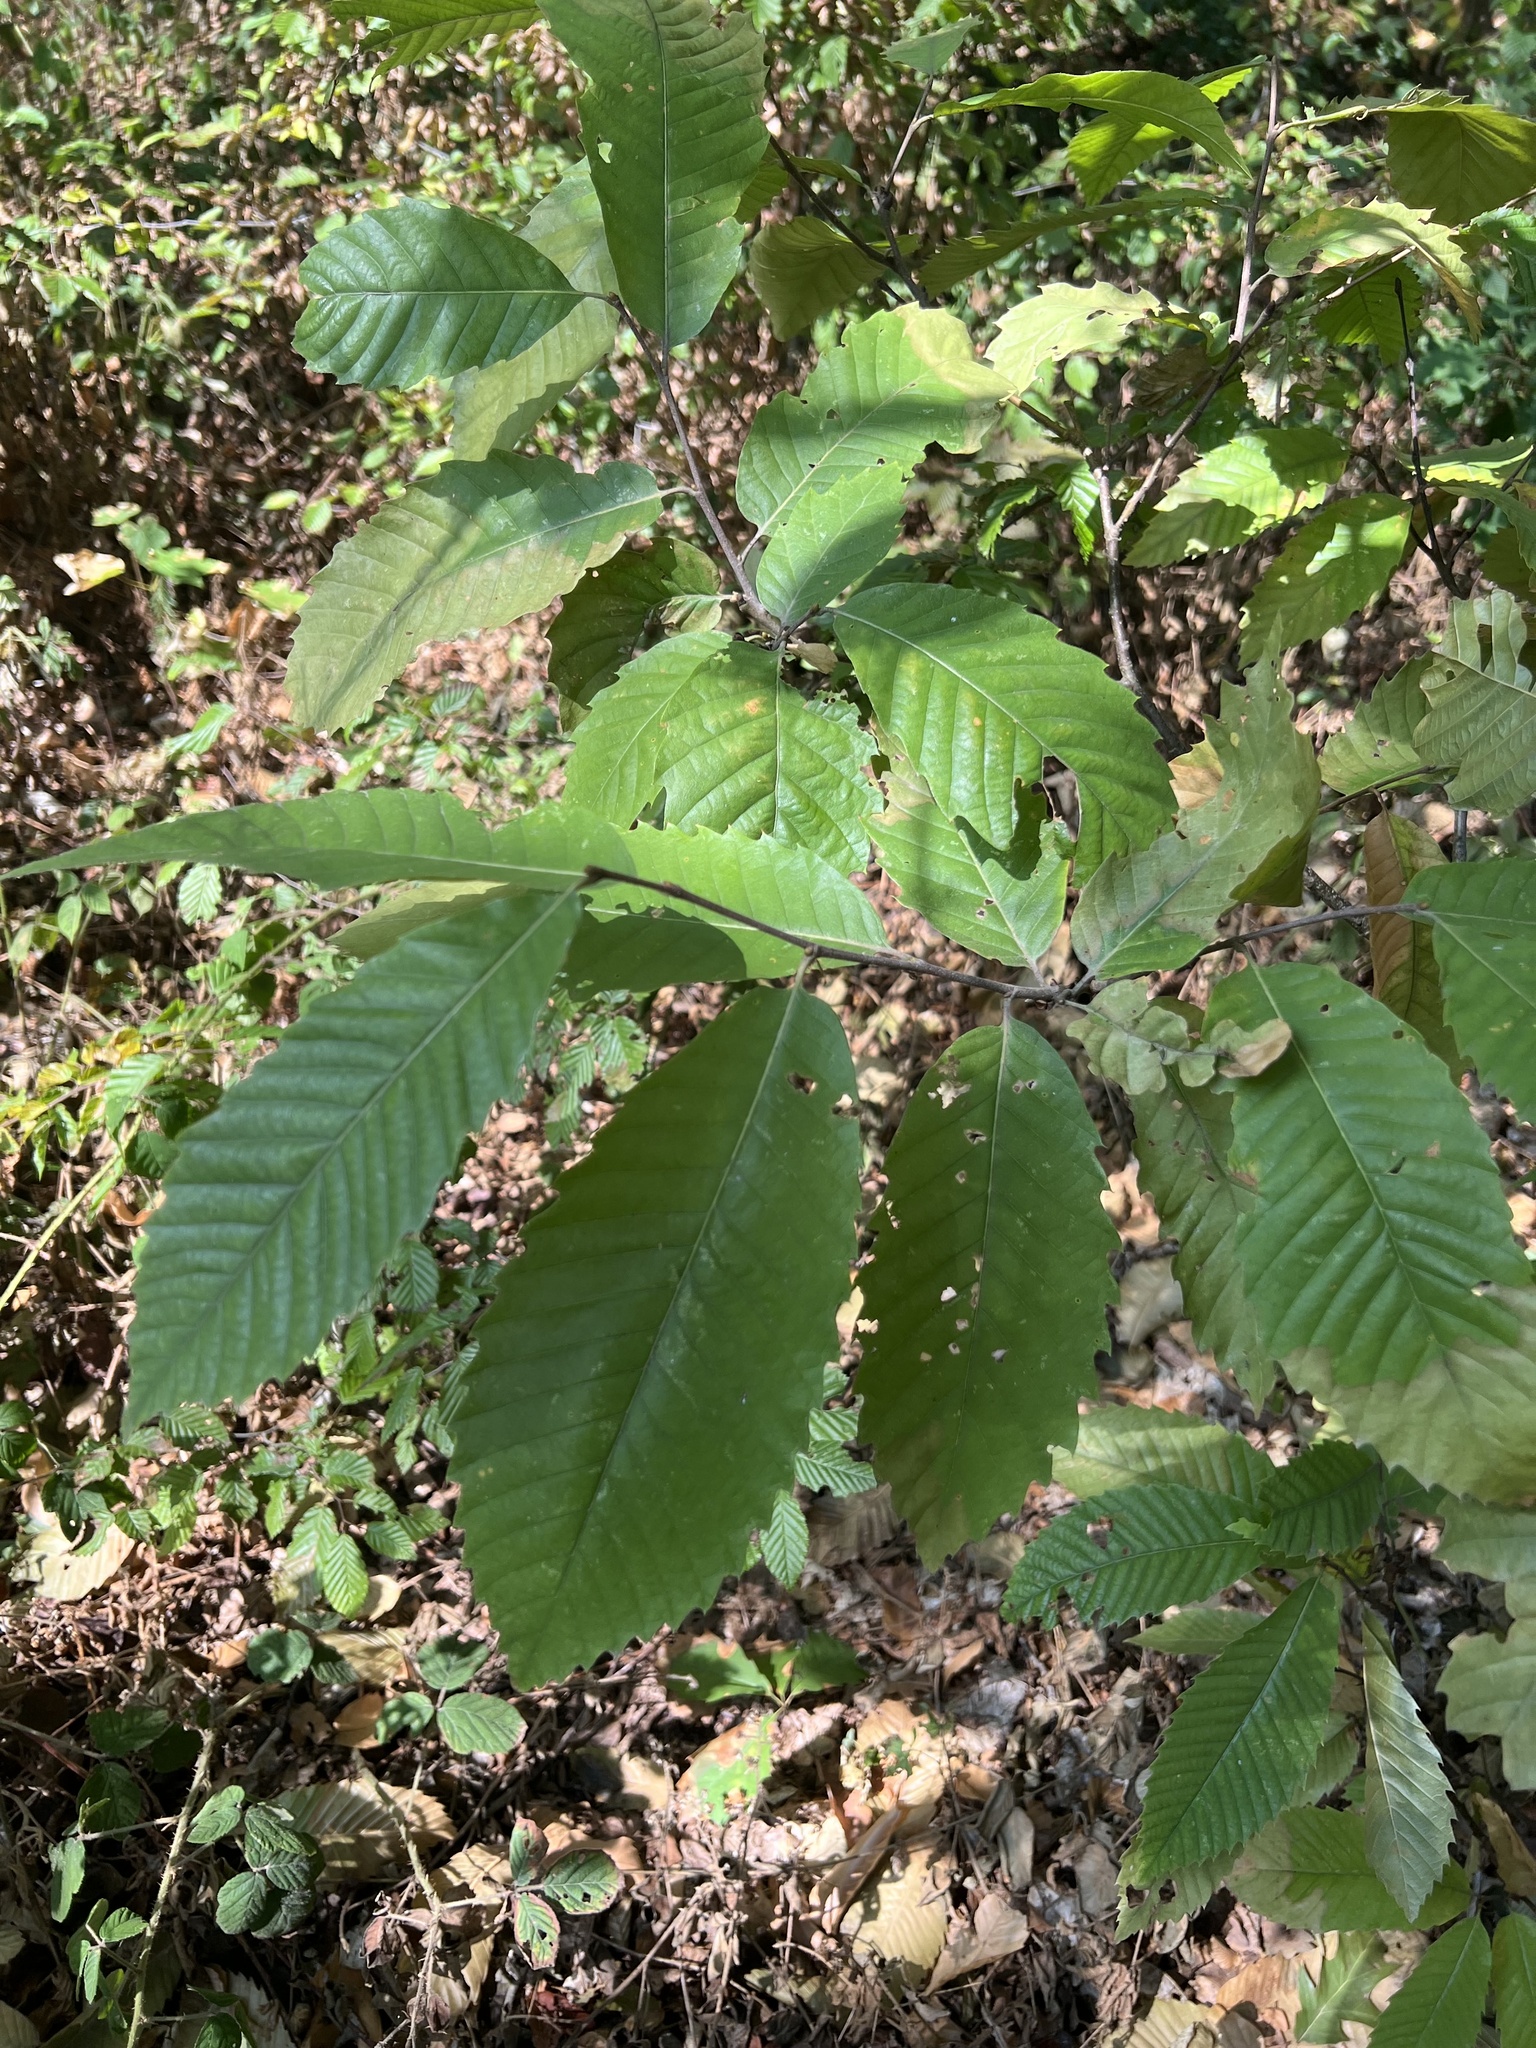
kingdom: Plantae
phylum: Tracheophyta
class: Magnoliopsida
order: Fagales
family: Fagaceae
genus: Castanea
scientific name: Castanea sativa
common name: Sweet chestnut
